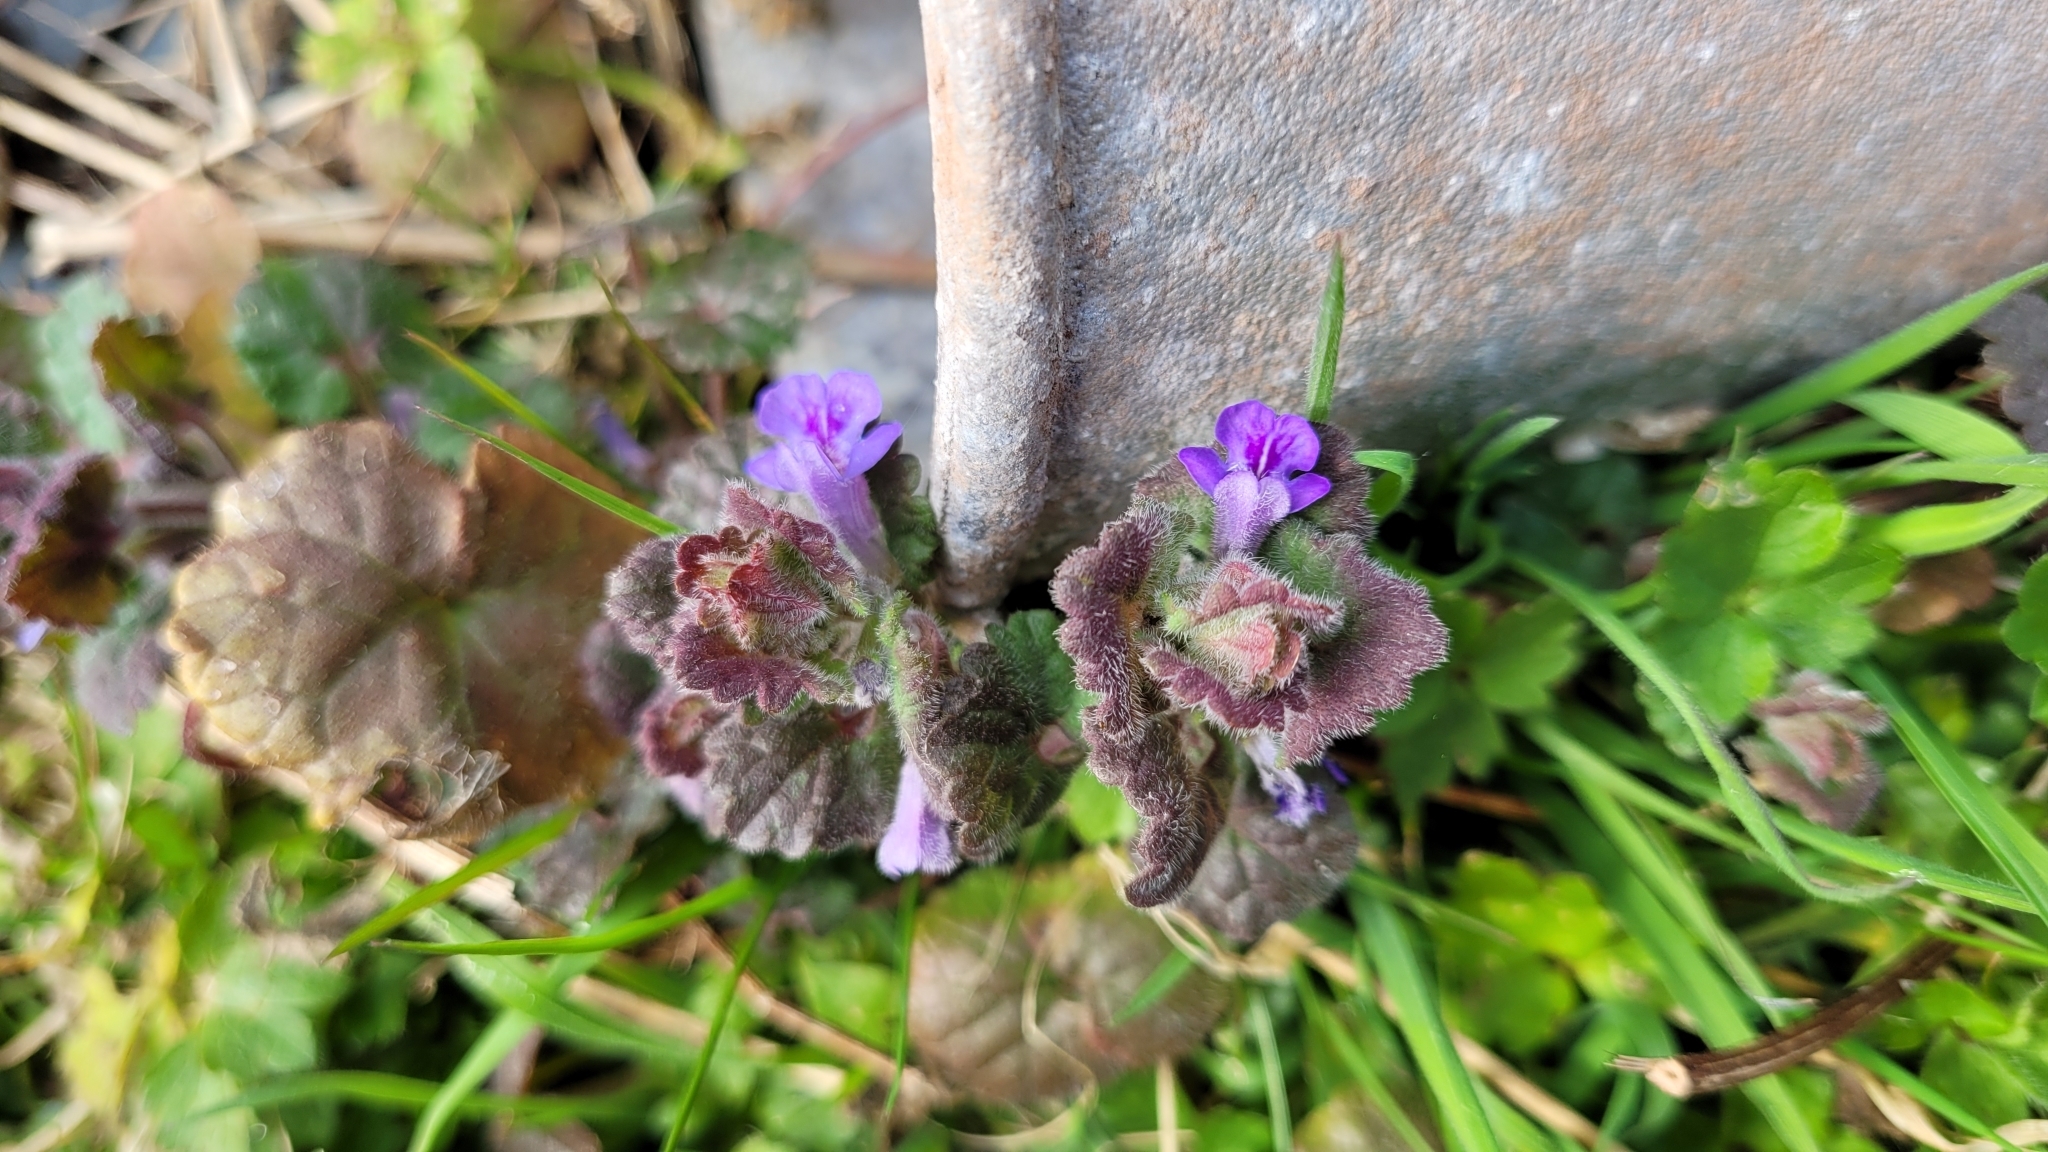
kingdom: Plantae
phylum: Tracheophyta
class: Magnoliopsida
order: Lamiales
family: Lamiaceae
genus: Glechoma
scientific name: Glechoma hederacea
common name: Ground ivy
